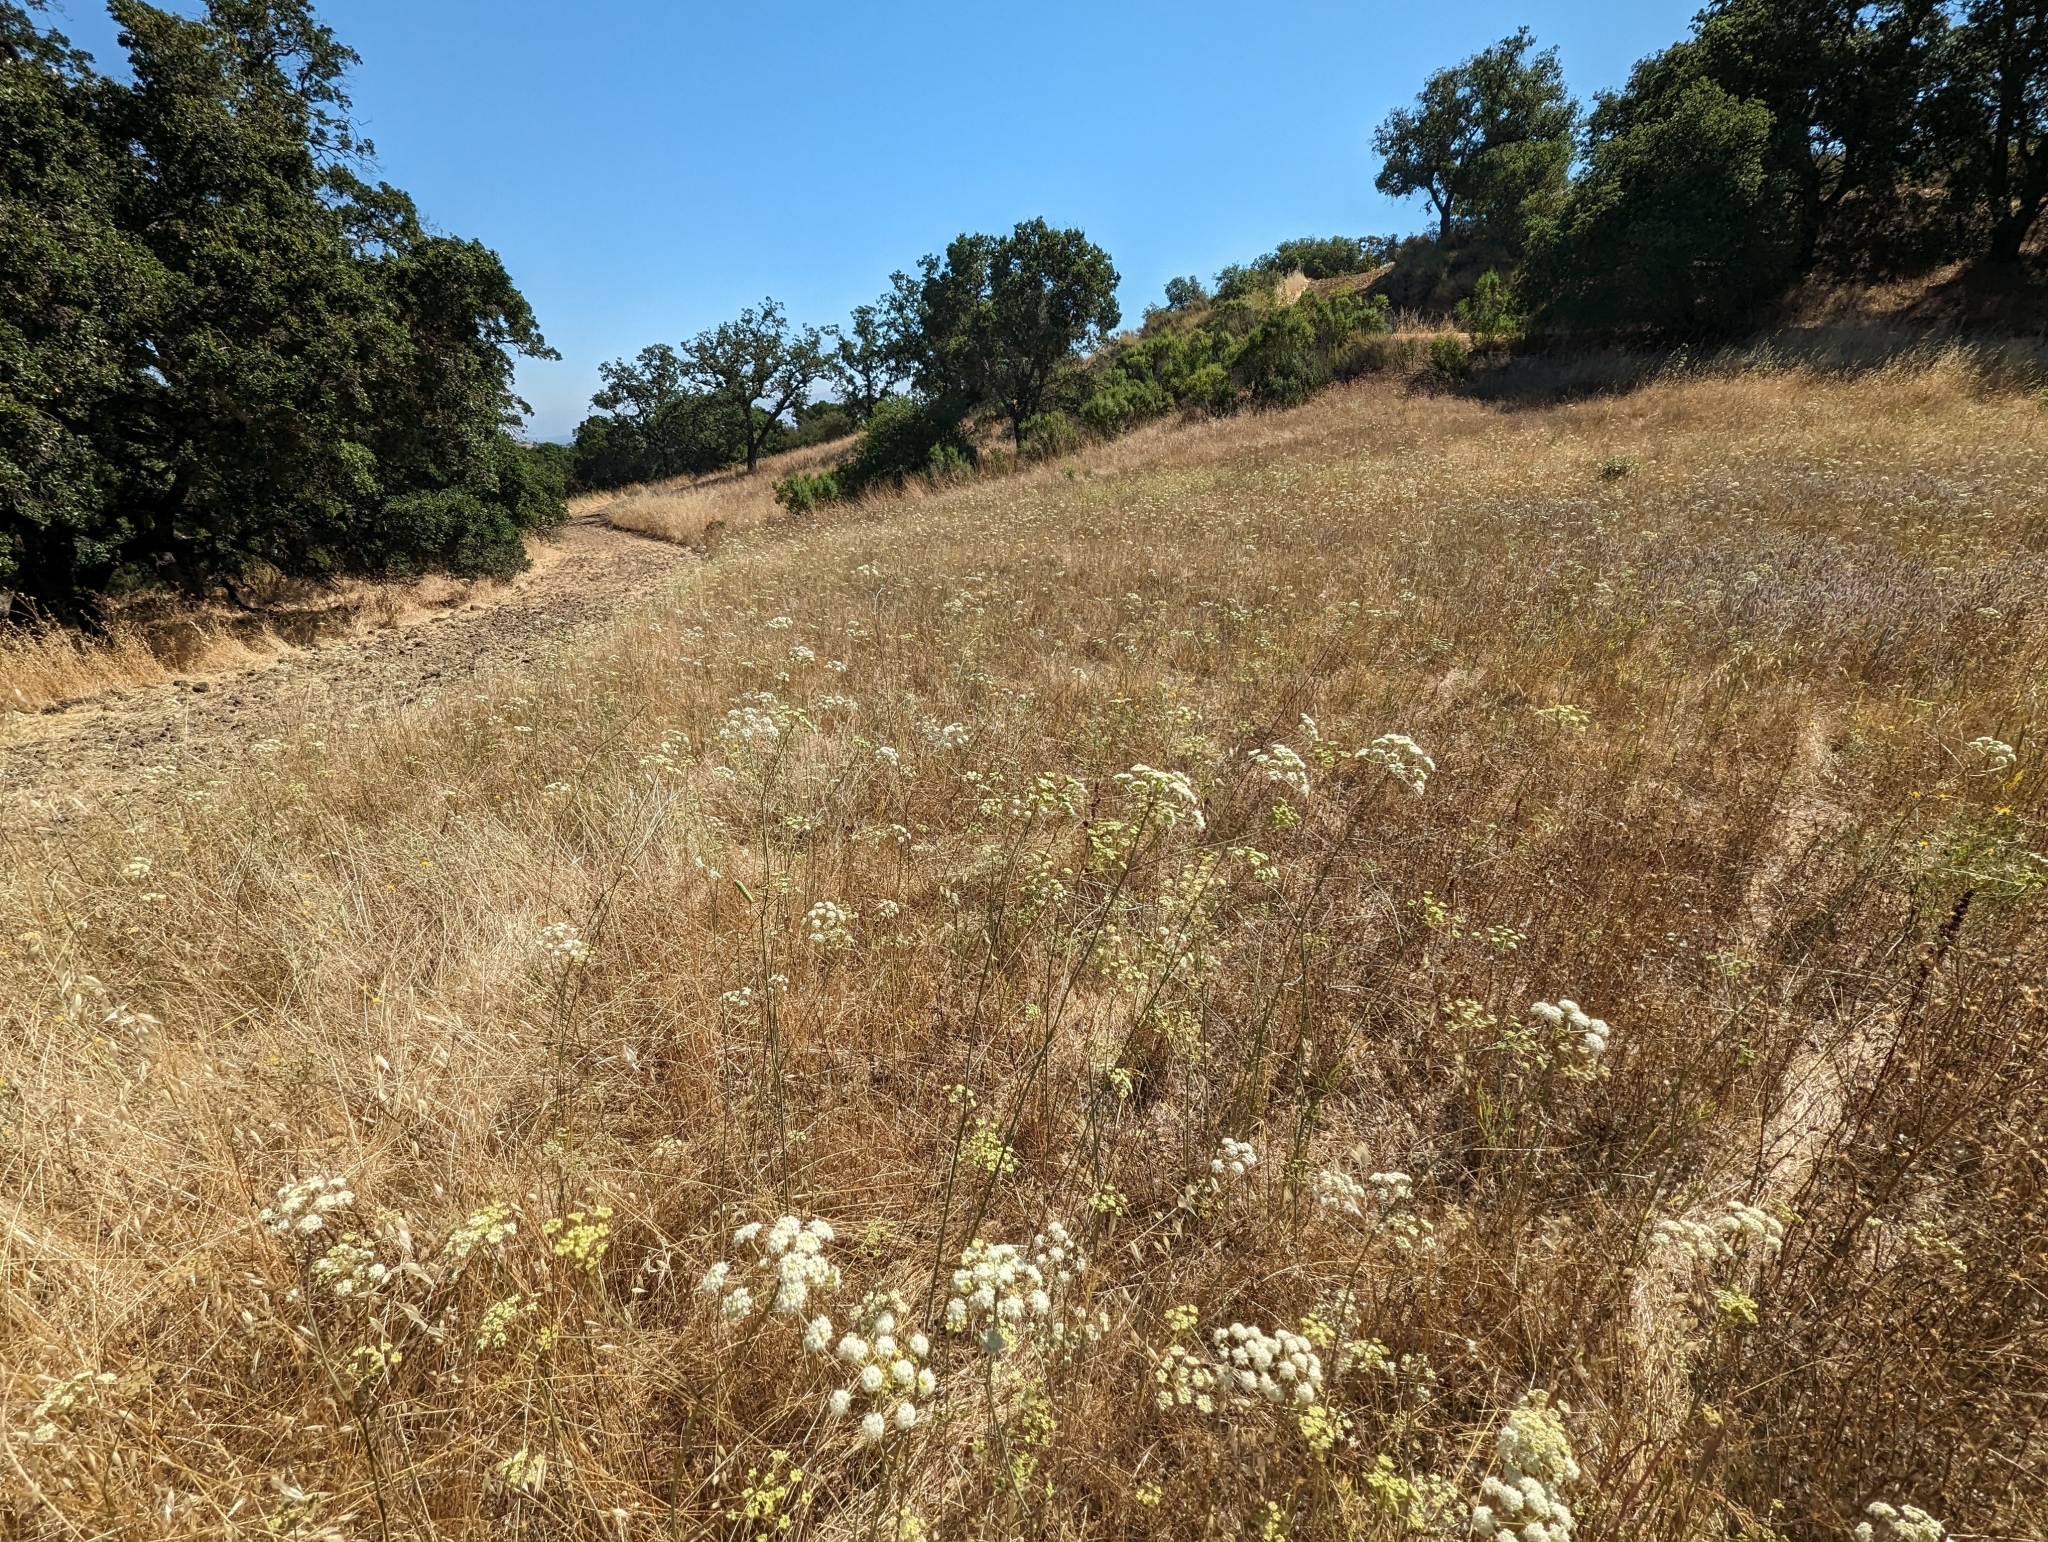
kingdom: Plantae
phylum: Tracheophyta
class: Magnoliopsida
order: Apiales
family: Apiaceae
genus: Perideridia
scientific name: Perideridia kelloggii
